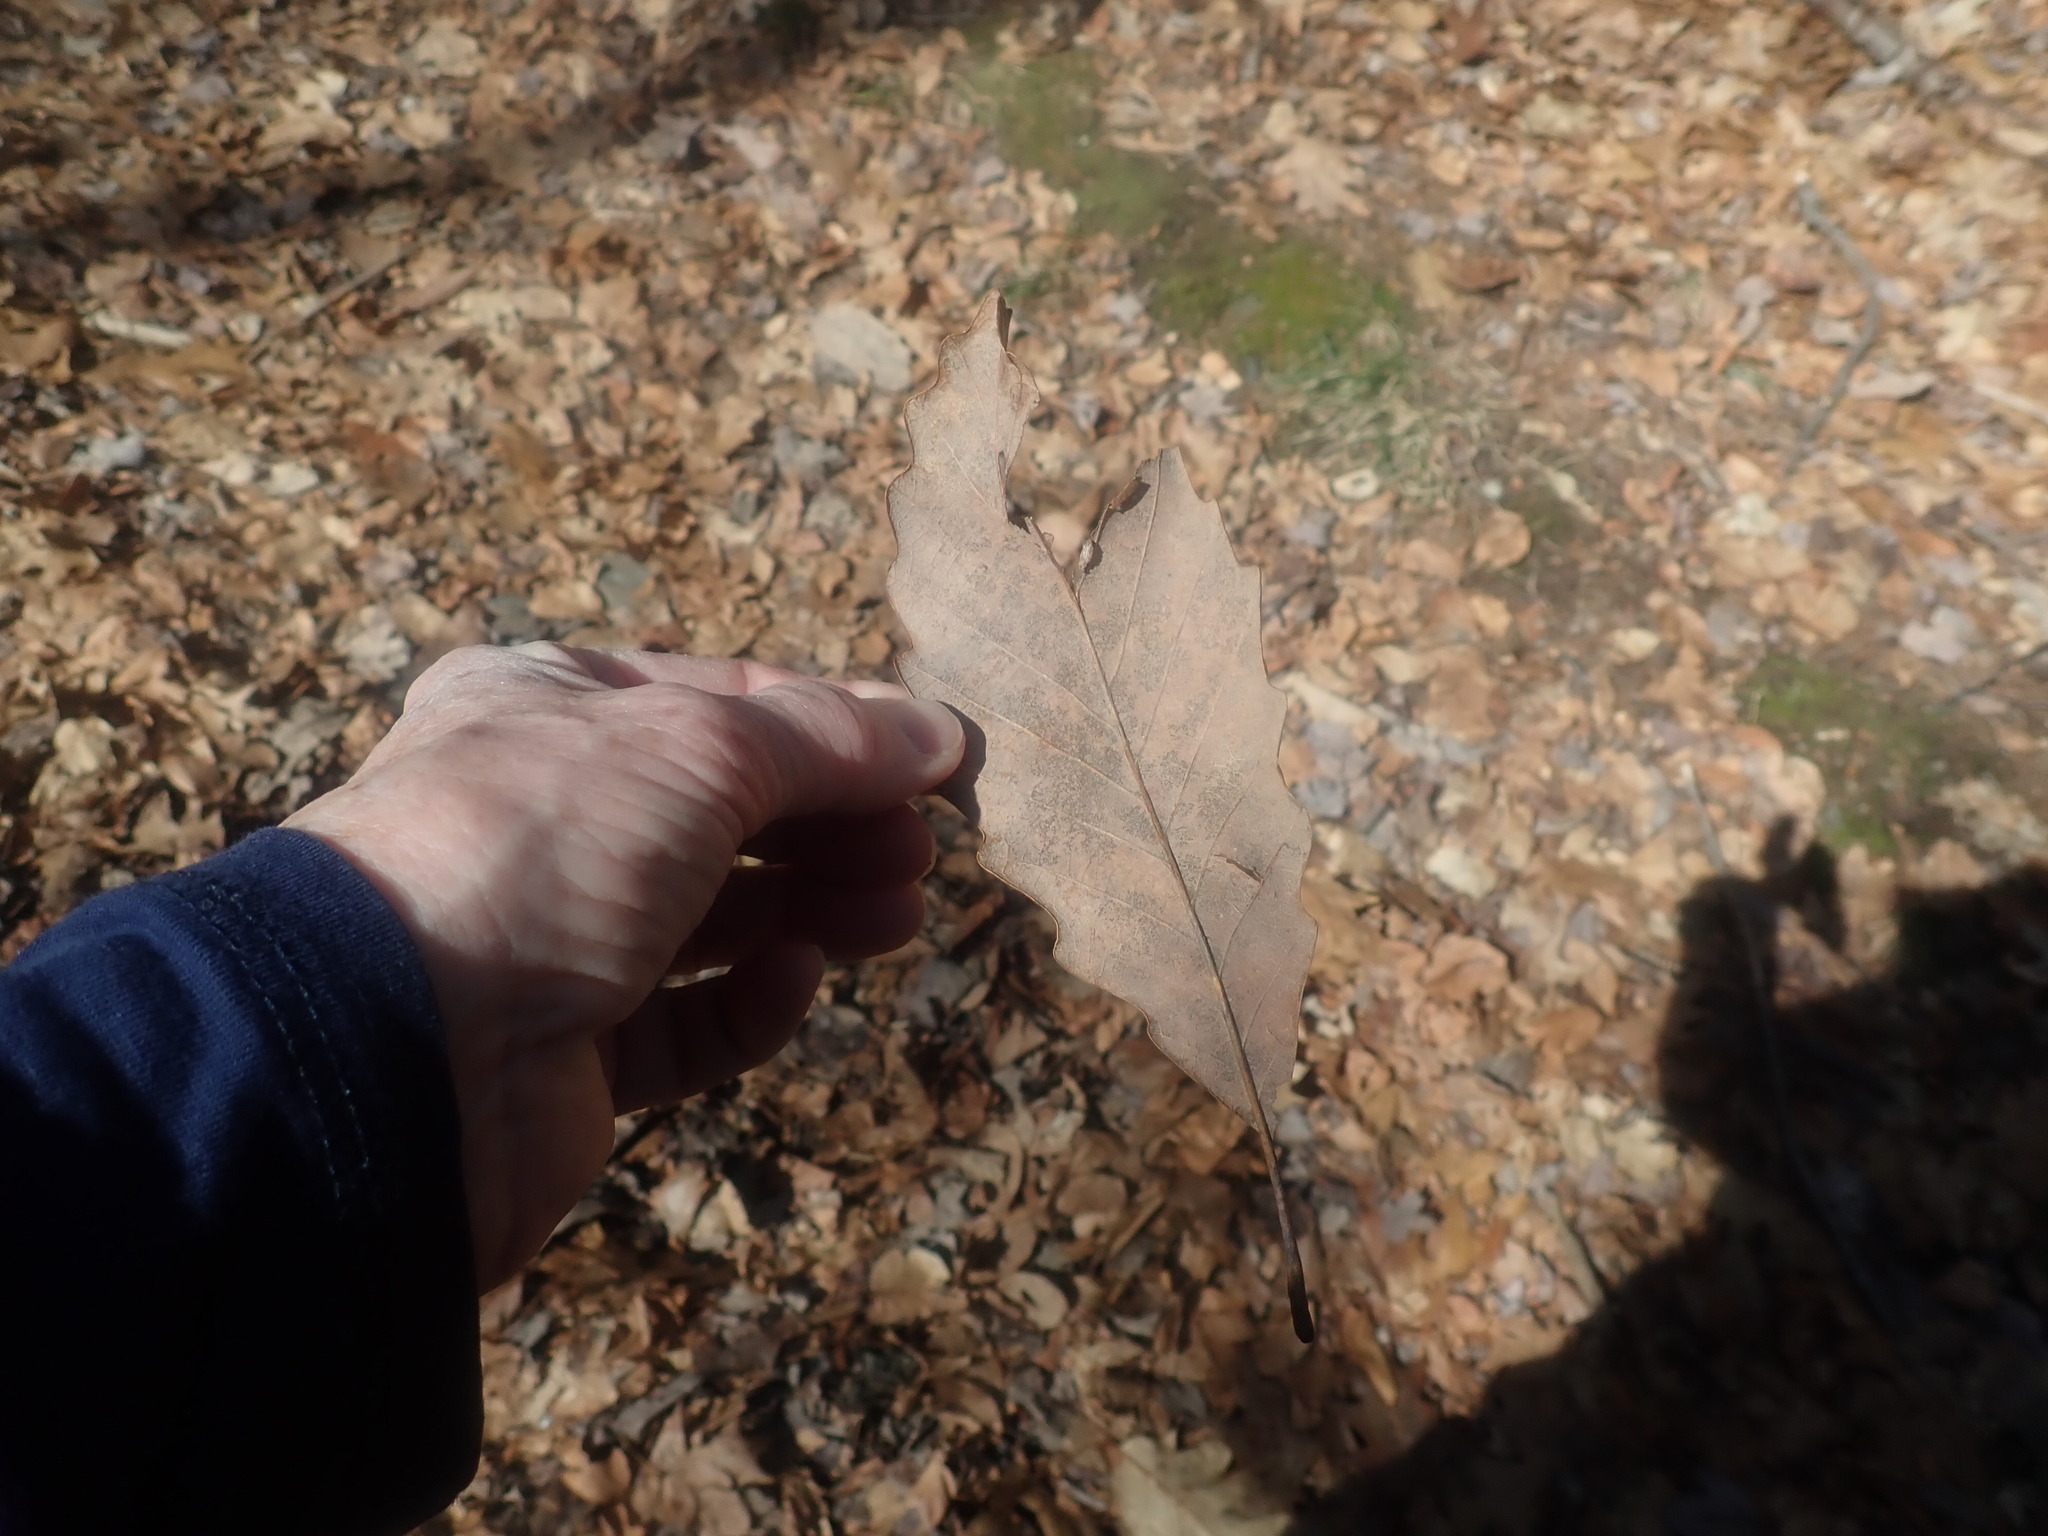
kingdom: Plantae
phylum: Tracheophyta
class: Magnoliopsida
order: Fagales
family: Fagaceae
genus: Quercus
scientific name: Quercus montana
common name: Chestnut oak
